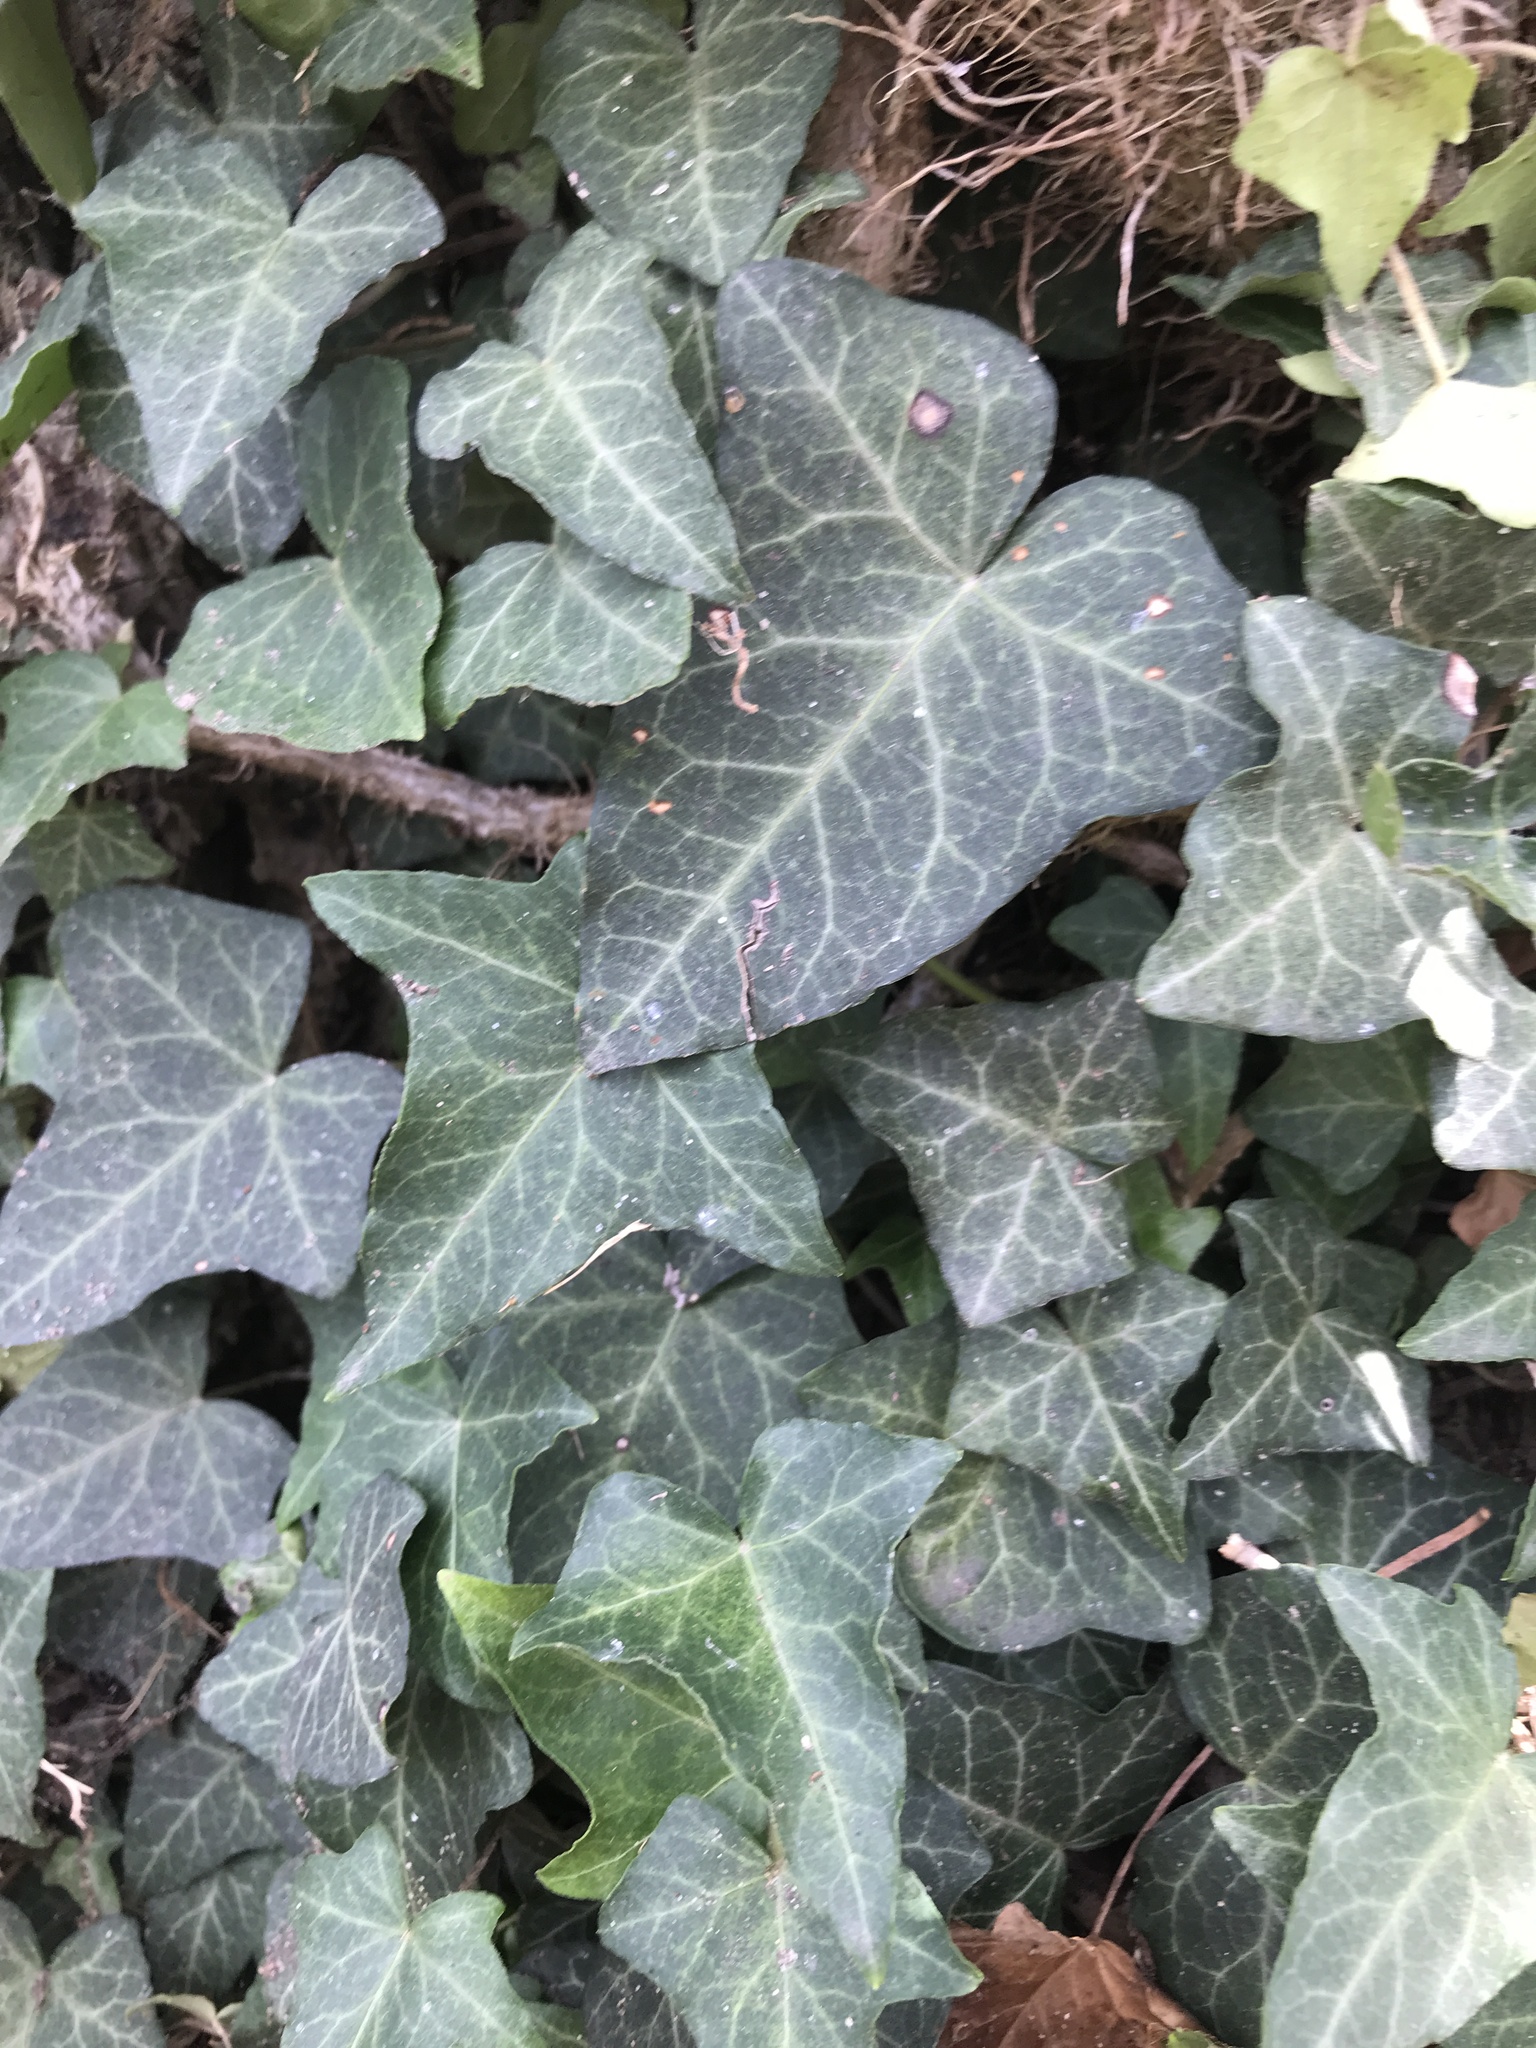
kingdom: Plantae
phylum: Tracheophyta
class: Magnoliopsida
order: Apiales
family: Araliaceae
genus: Hedera
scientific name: Hedera helix
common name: Ivy
